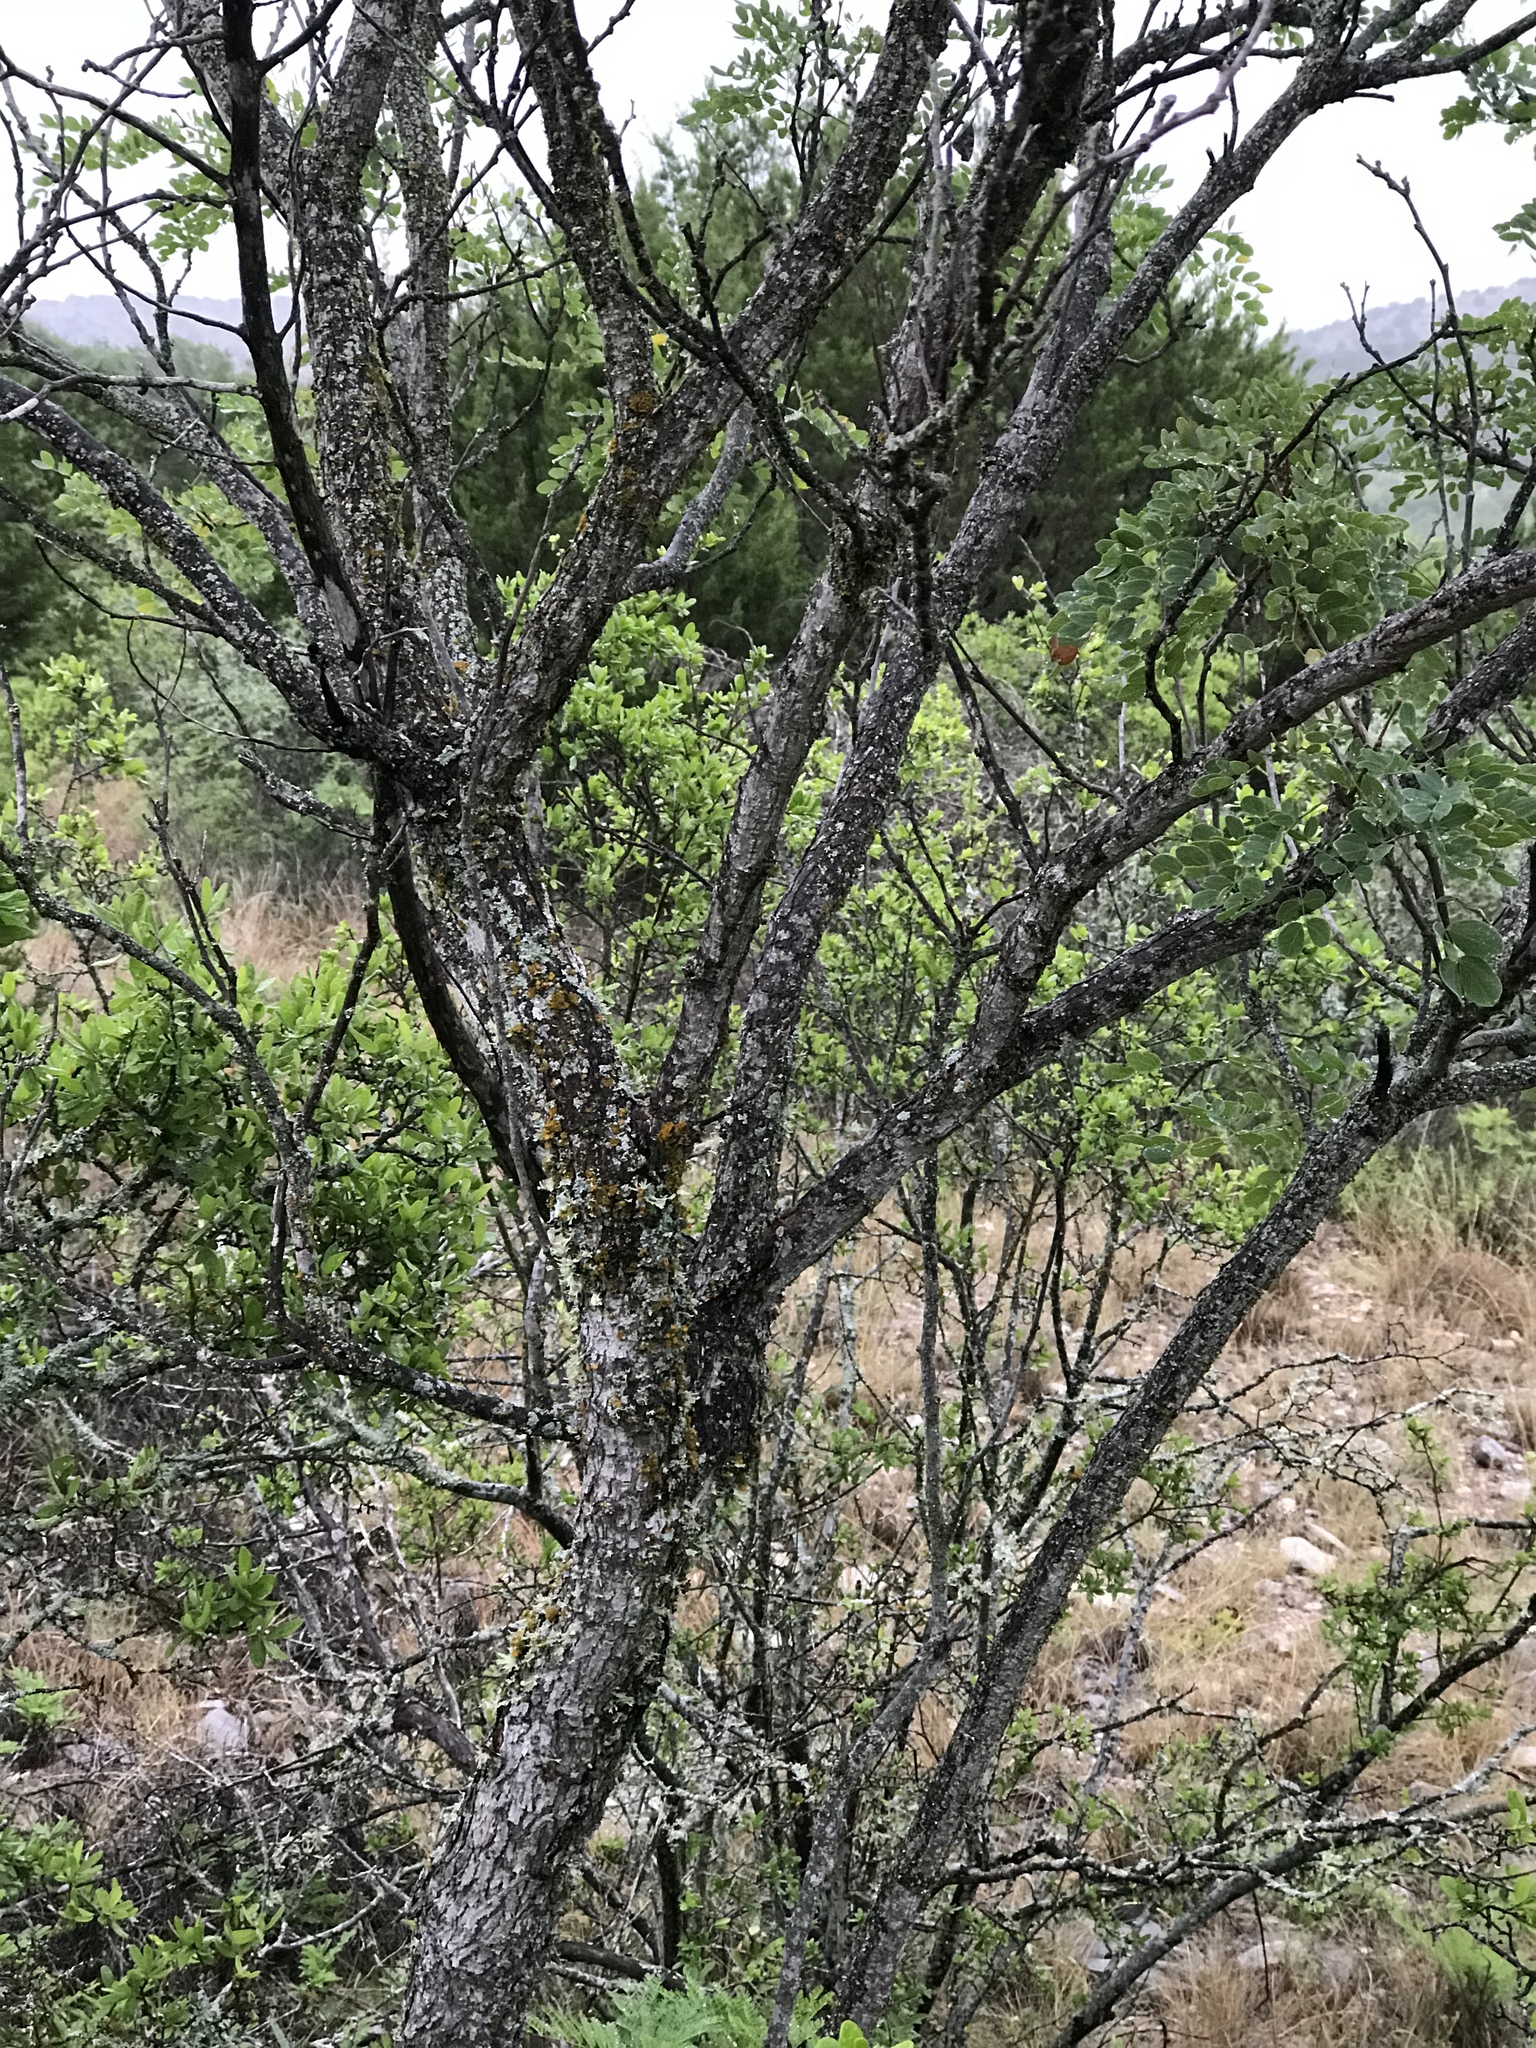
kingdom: Plantae
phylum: Tracheophyta
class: Magnoliopsida
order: Fabales
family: Fabaceae
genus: Leucaena
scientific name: Leucaena retusa
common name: Littleleaf leadtree
